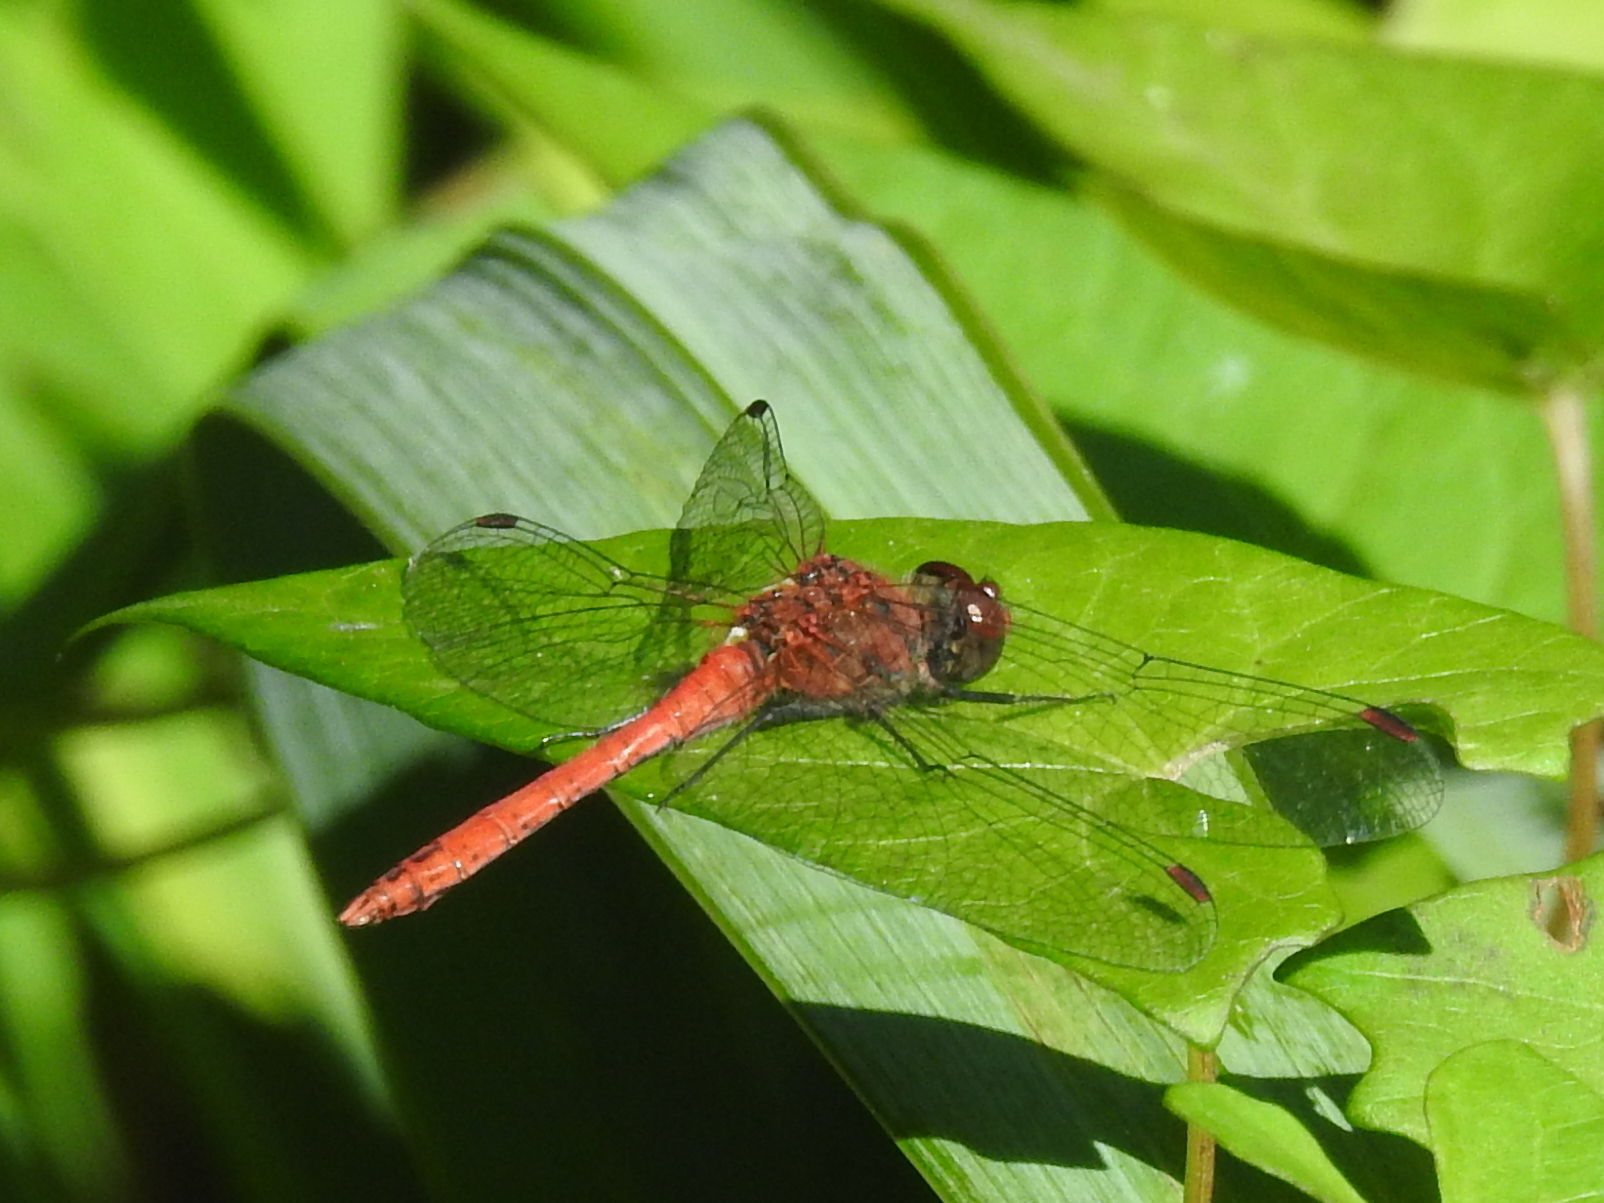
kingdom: Animalia
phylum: Arthropoda
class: Insecta
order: Odonata
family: Libellulidae
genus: Sympetrum
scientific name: Sympetrum sanguineum
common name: Ruddy darter
